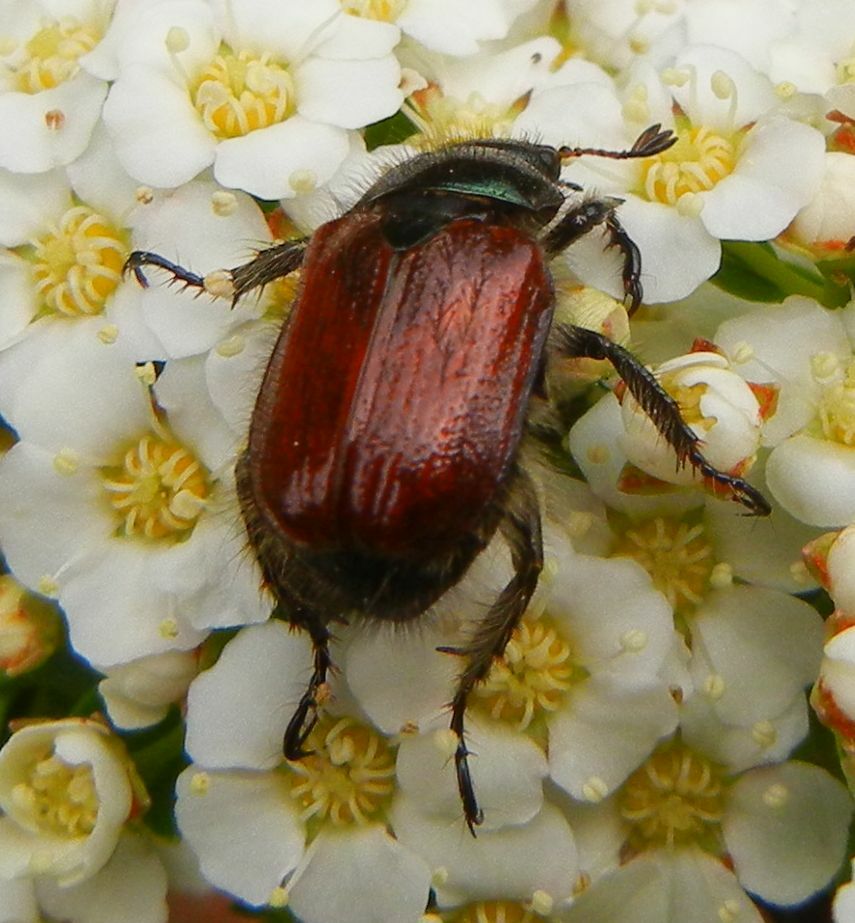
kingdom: Animalia
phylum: Arthropoda
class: Insecta
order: Coleoptera
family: Scarabaeidae
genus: Phyllopertha
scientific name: Phyllopertha horticola
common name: Garden chafer
